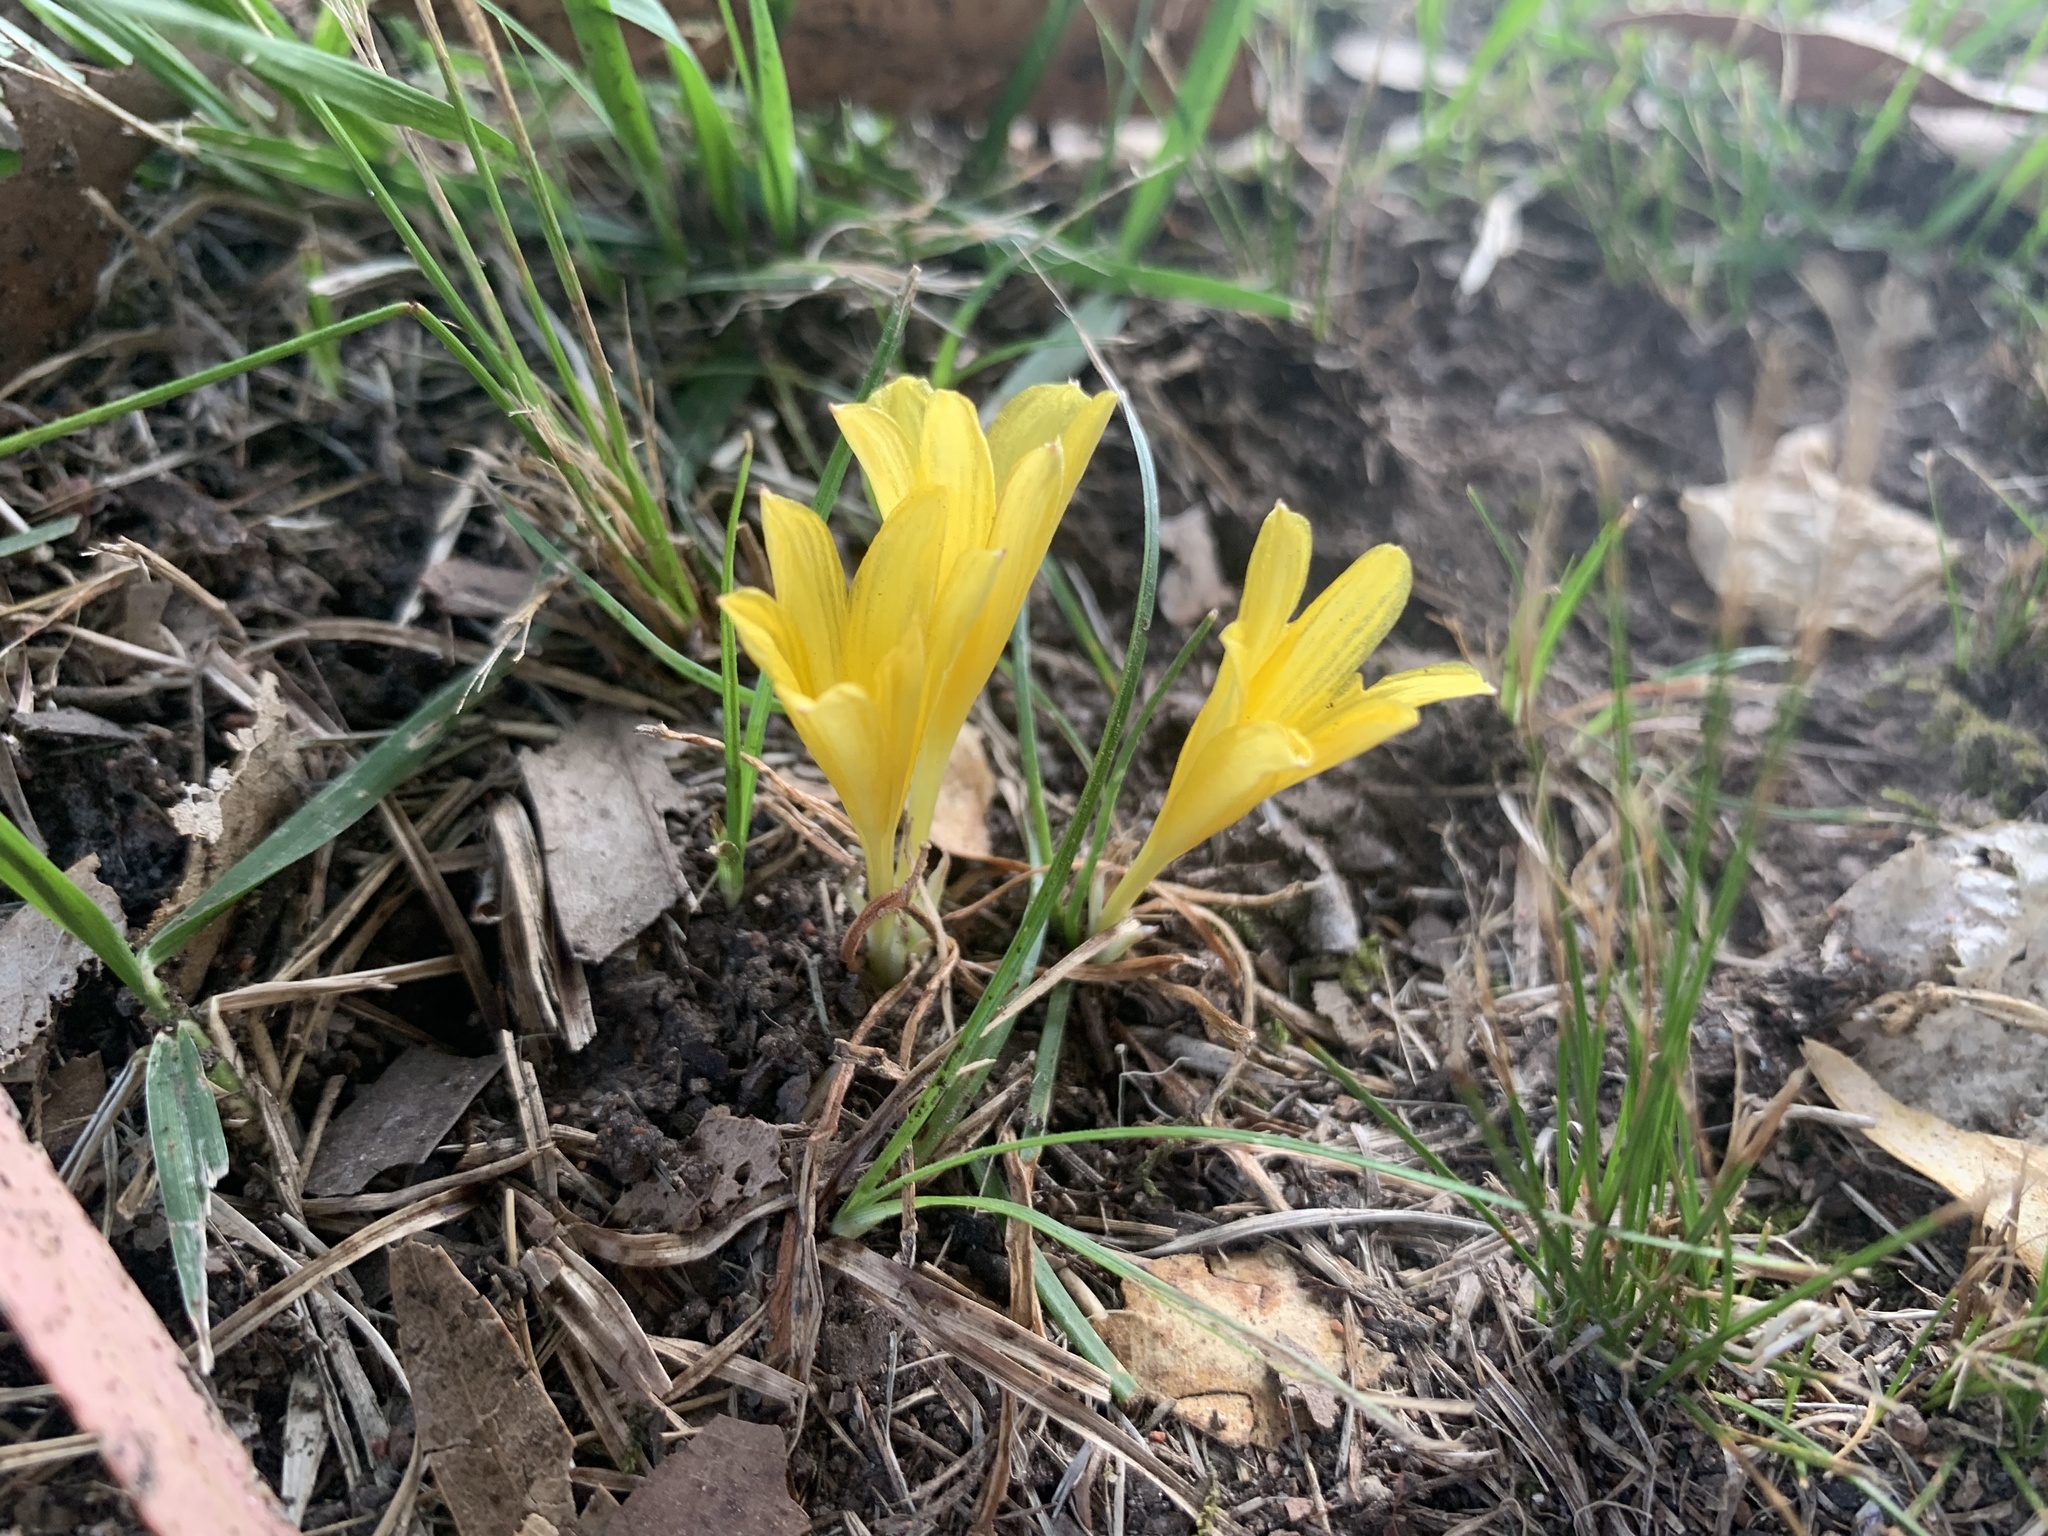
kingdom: Plantae
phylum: Tracheophyta
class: Liliopsida
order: Asparagales
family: Amaryllidaceae
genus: Zephyranthes
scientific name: Zephyranthes americana
